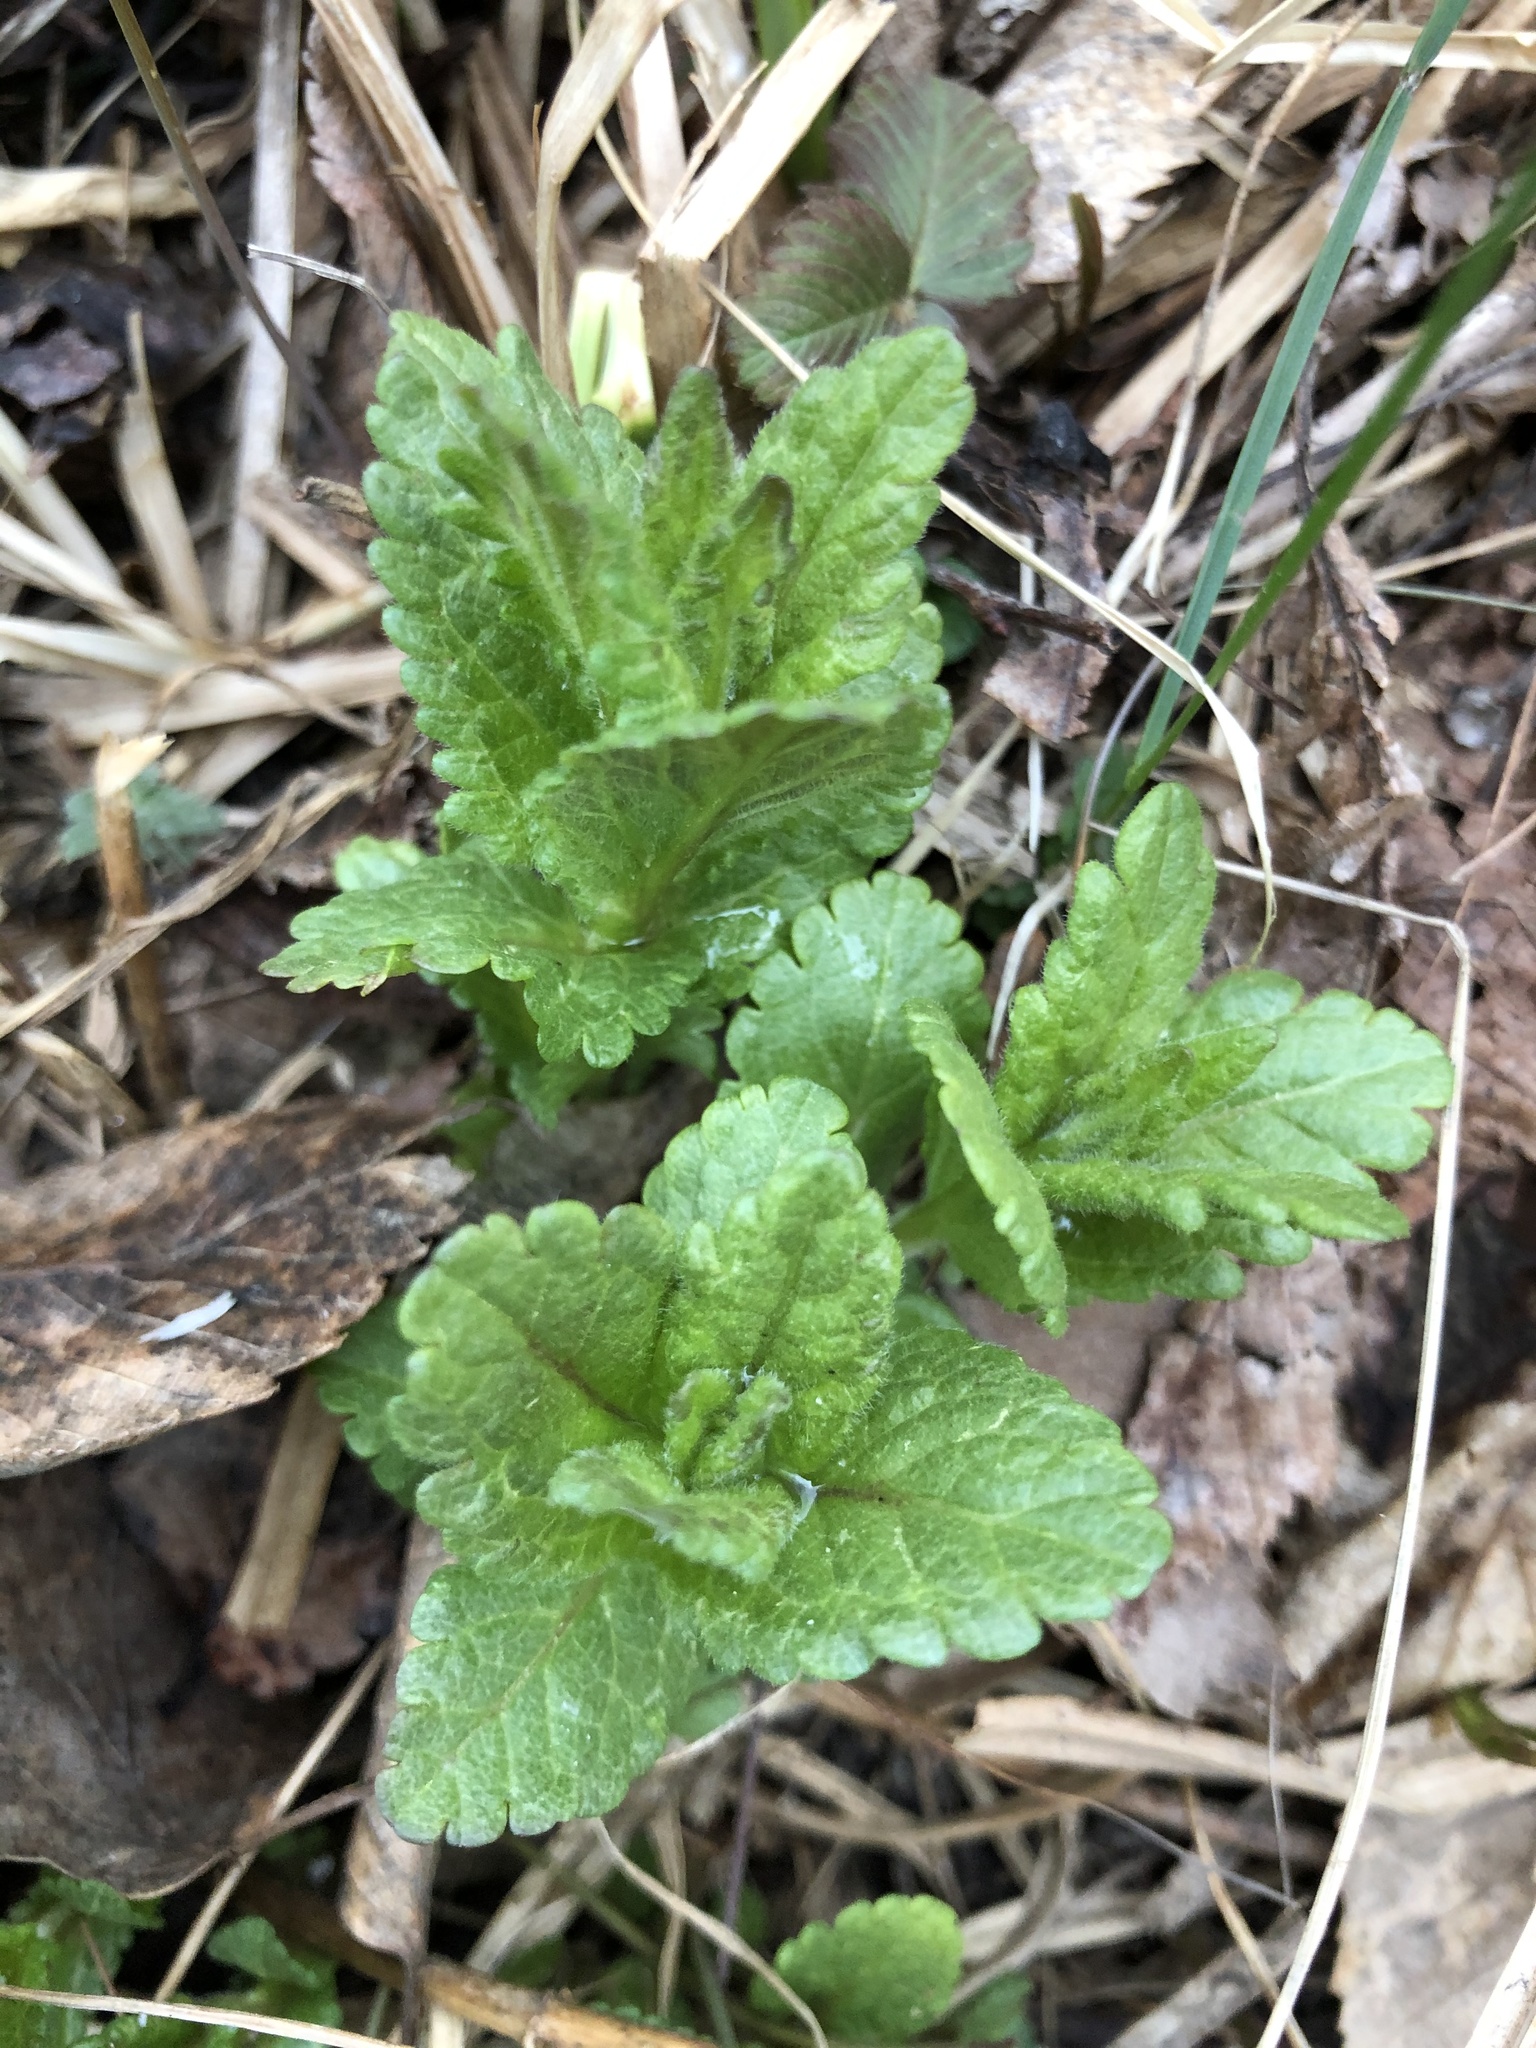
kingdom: Plantae
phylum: Tracheophyta
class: Magnoliopsida
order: Lamiales
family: Plantaginaceae
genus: Veronica
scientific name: Veronica chamaedrys
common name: Germander speedwell
